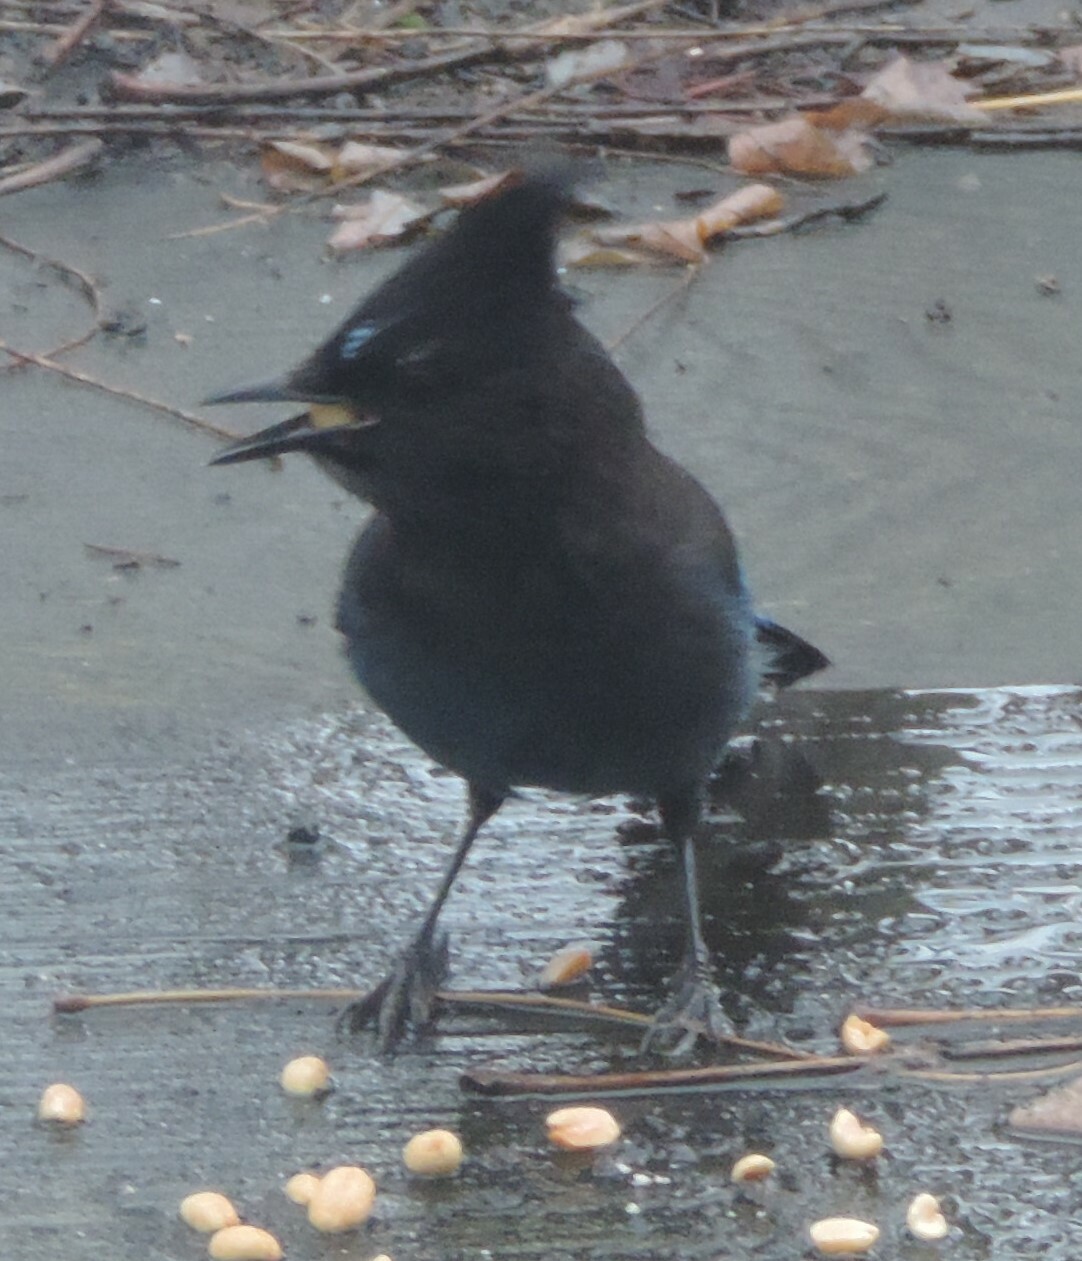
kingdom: Animalia
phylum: Chordata
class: Aves
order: Passeriformes
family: Corvidae
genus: Cyanocitta
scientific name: Cyanocitta stelleri
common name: Steller's jay
